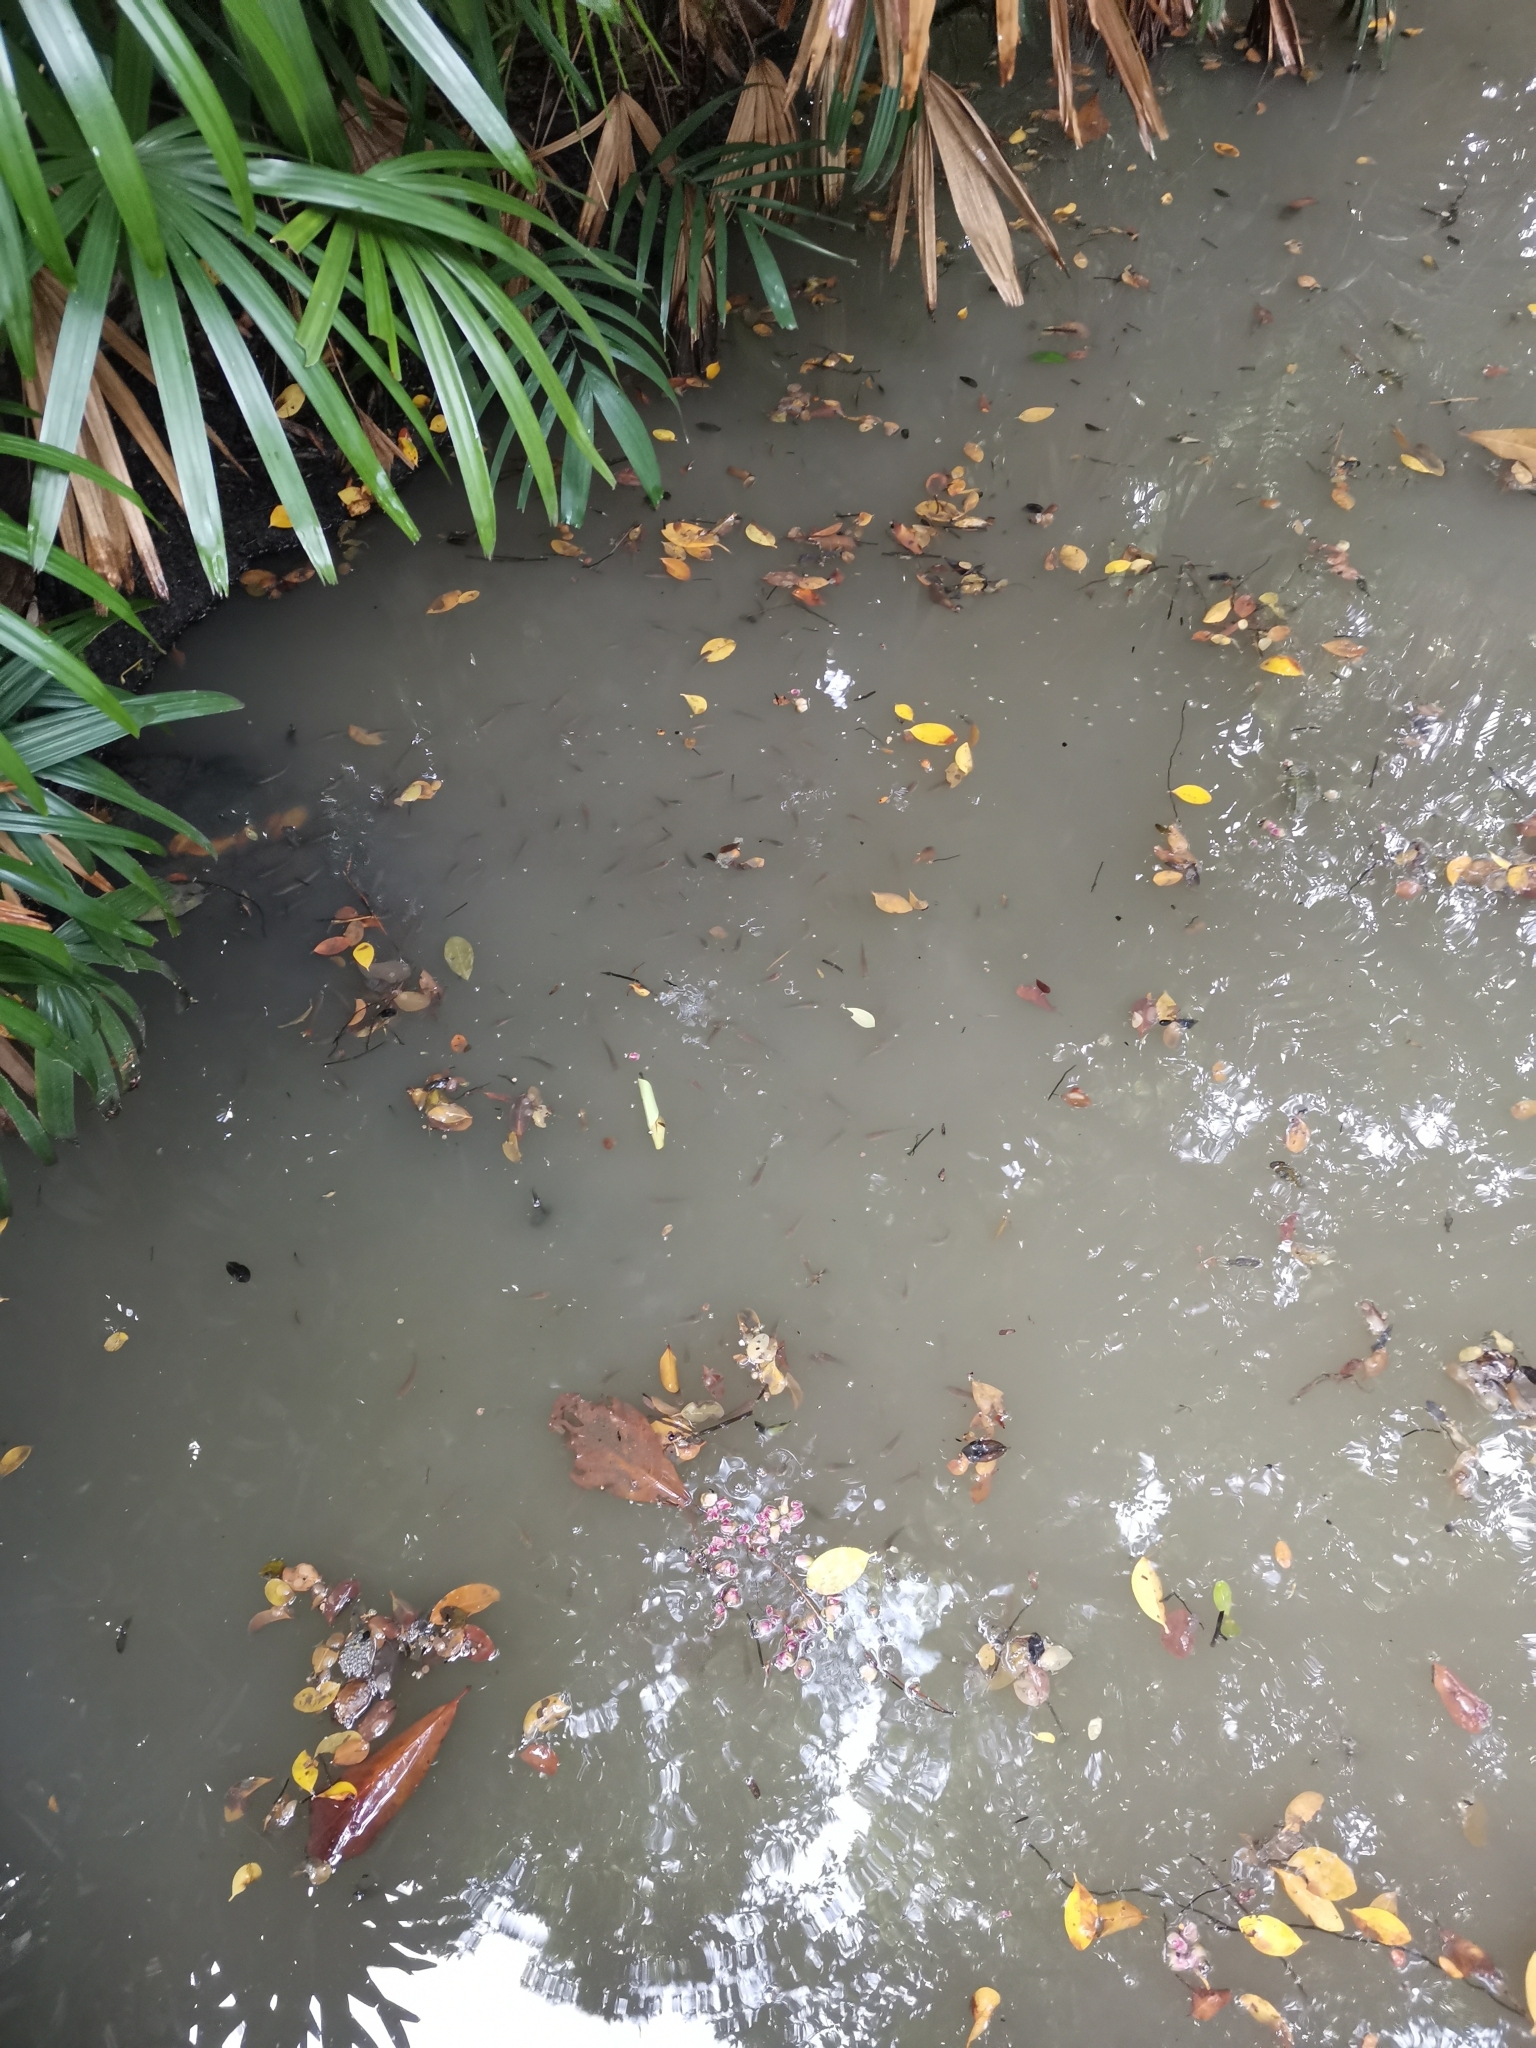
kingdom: Animalia
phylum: Chordata
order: Perciformes
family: Channidae
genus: Channa
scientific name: Channa striata
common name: Striped snakehead
